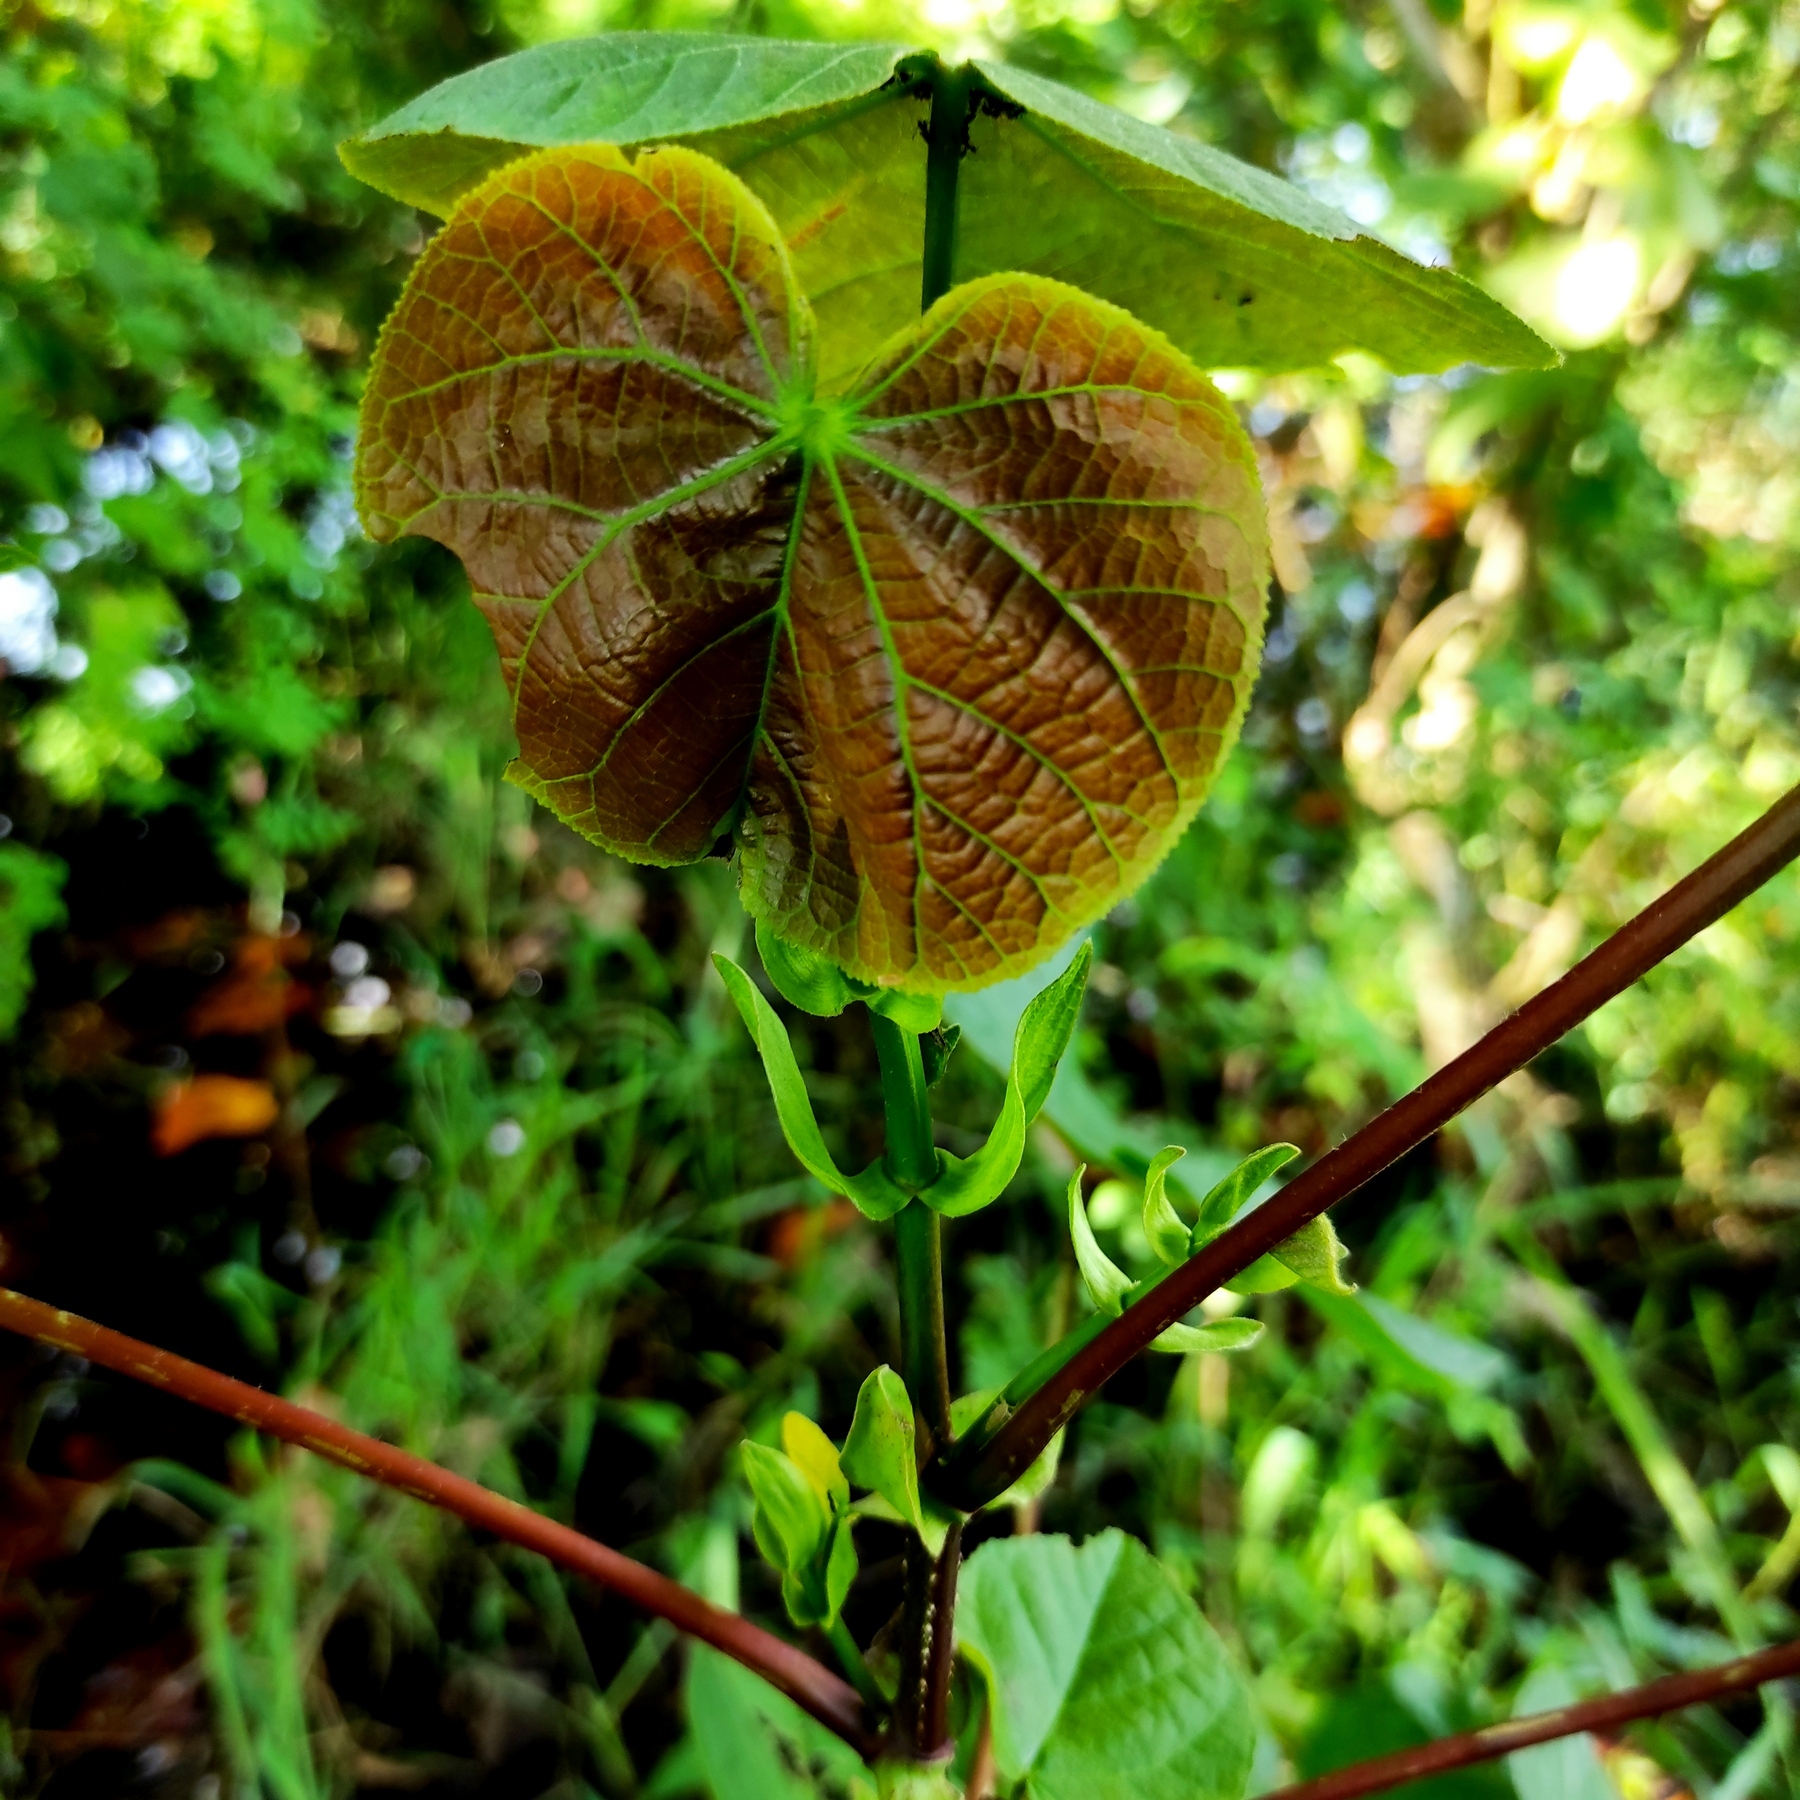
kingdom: Plantae
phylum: Tracheophyta
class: Magnoliopsida
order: Malvales
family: Malvaceae
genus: Talipariti
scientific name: Talipariti tiliaceum
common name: Sea hibiscus
